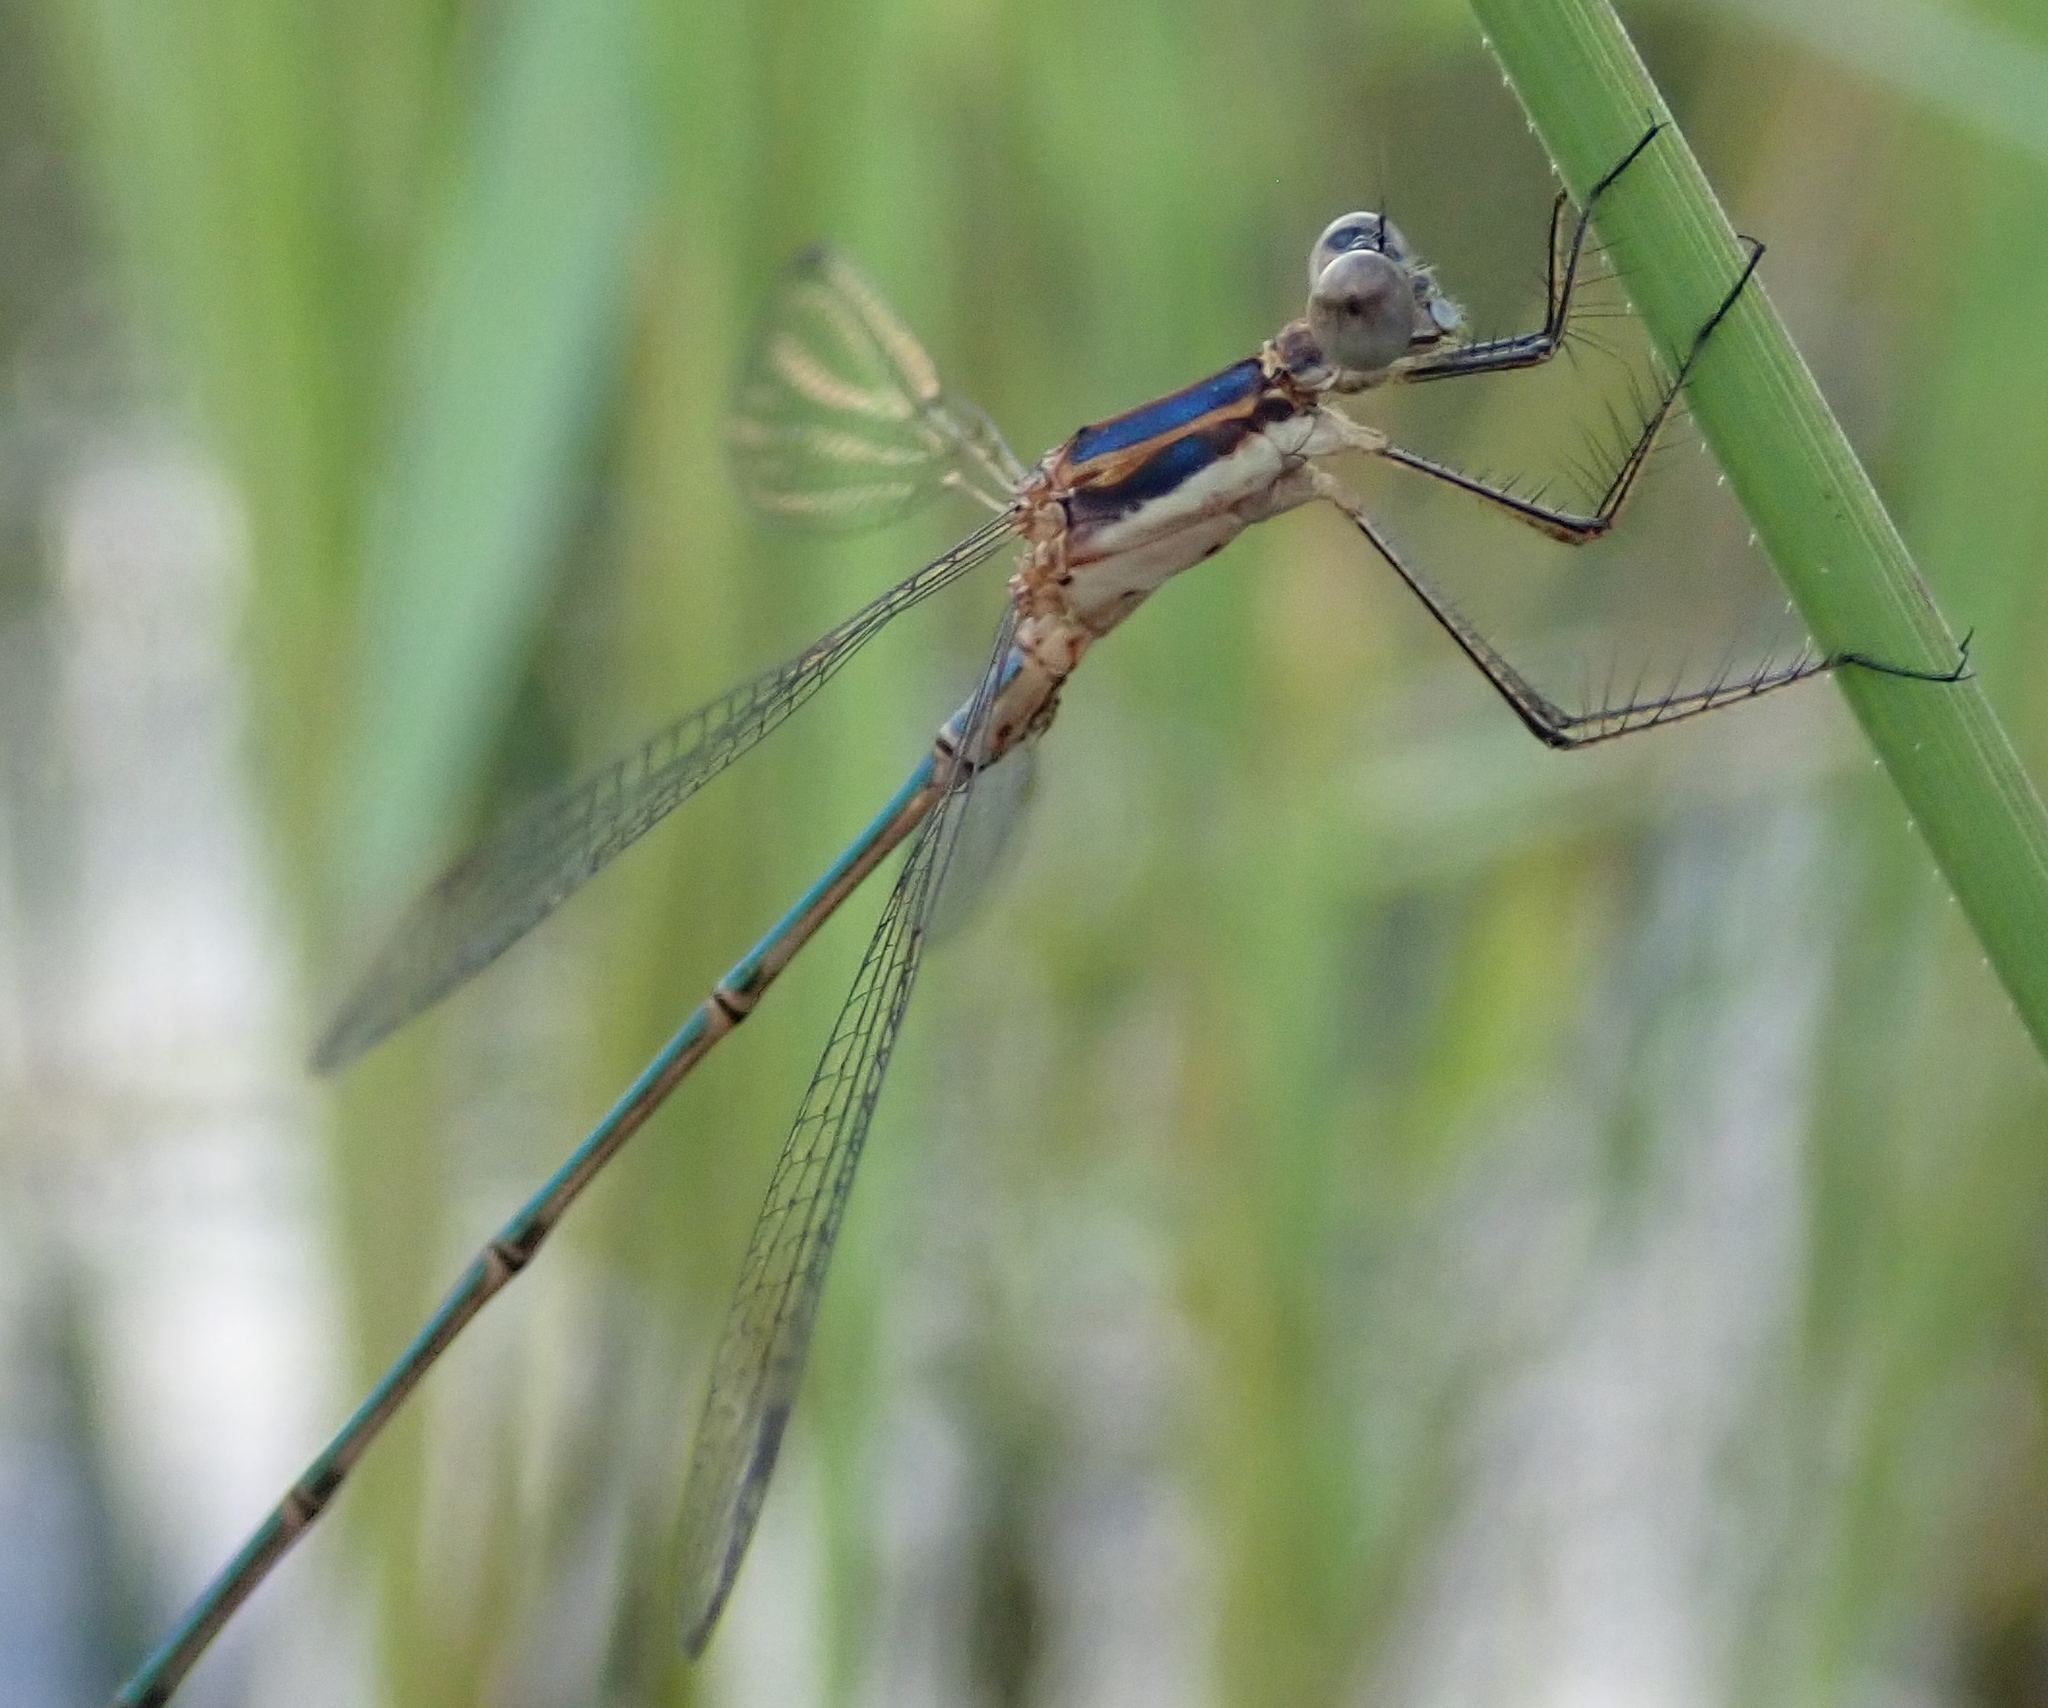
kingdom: Animalia
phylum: Arthropoda
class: Insecta
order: Odonata
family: Lestidae
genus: Lestes
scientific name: Lestes pinheyi
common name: Pinhey's spreadwing
